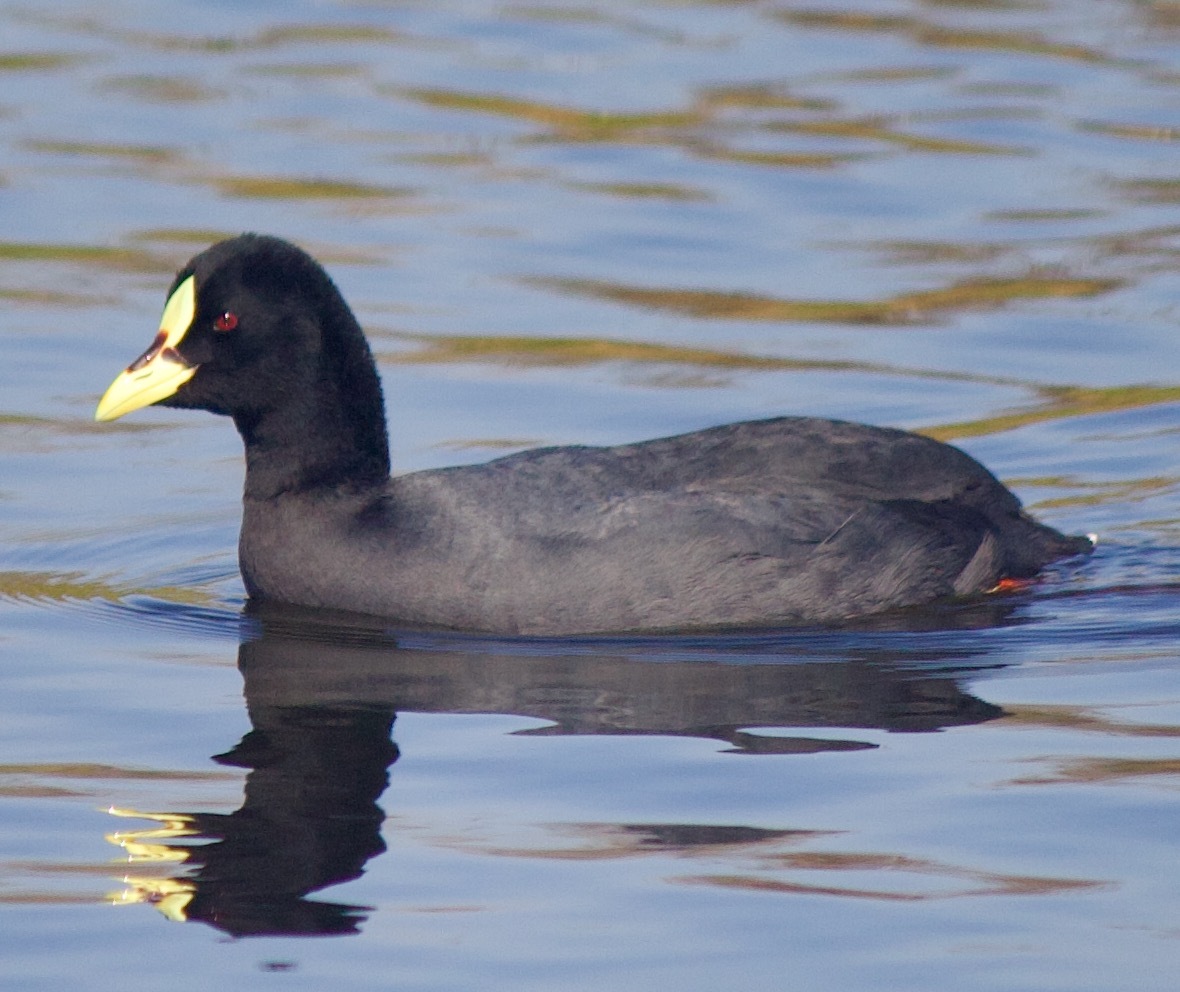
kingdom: Animalia
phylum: Chordata
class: Aves
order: Gruiformes
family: Rallidae
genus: Fulica
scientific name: Fulica armillata
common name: Red-gartered coot
